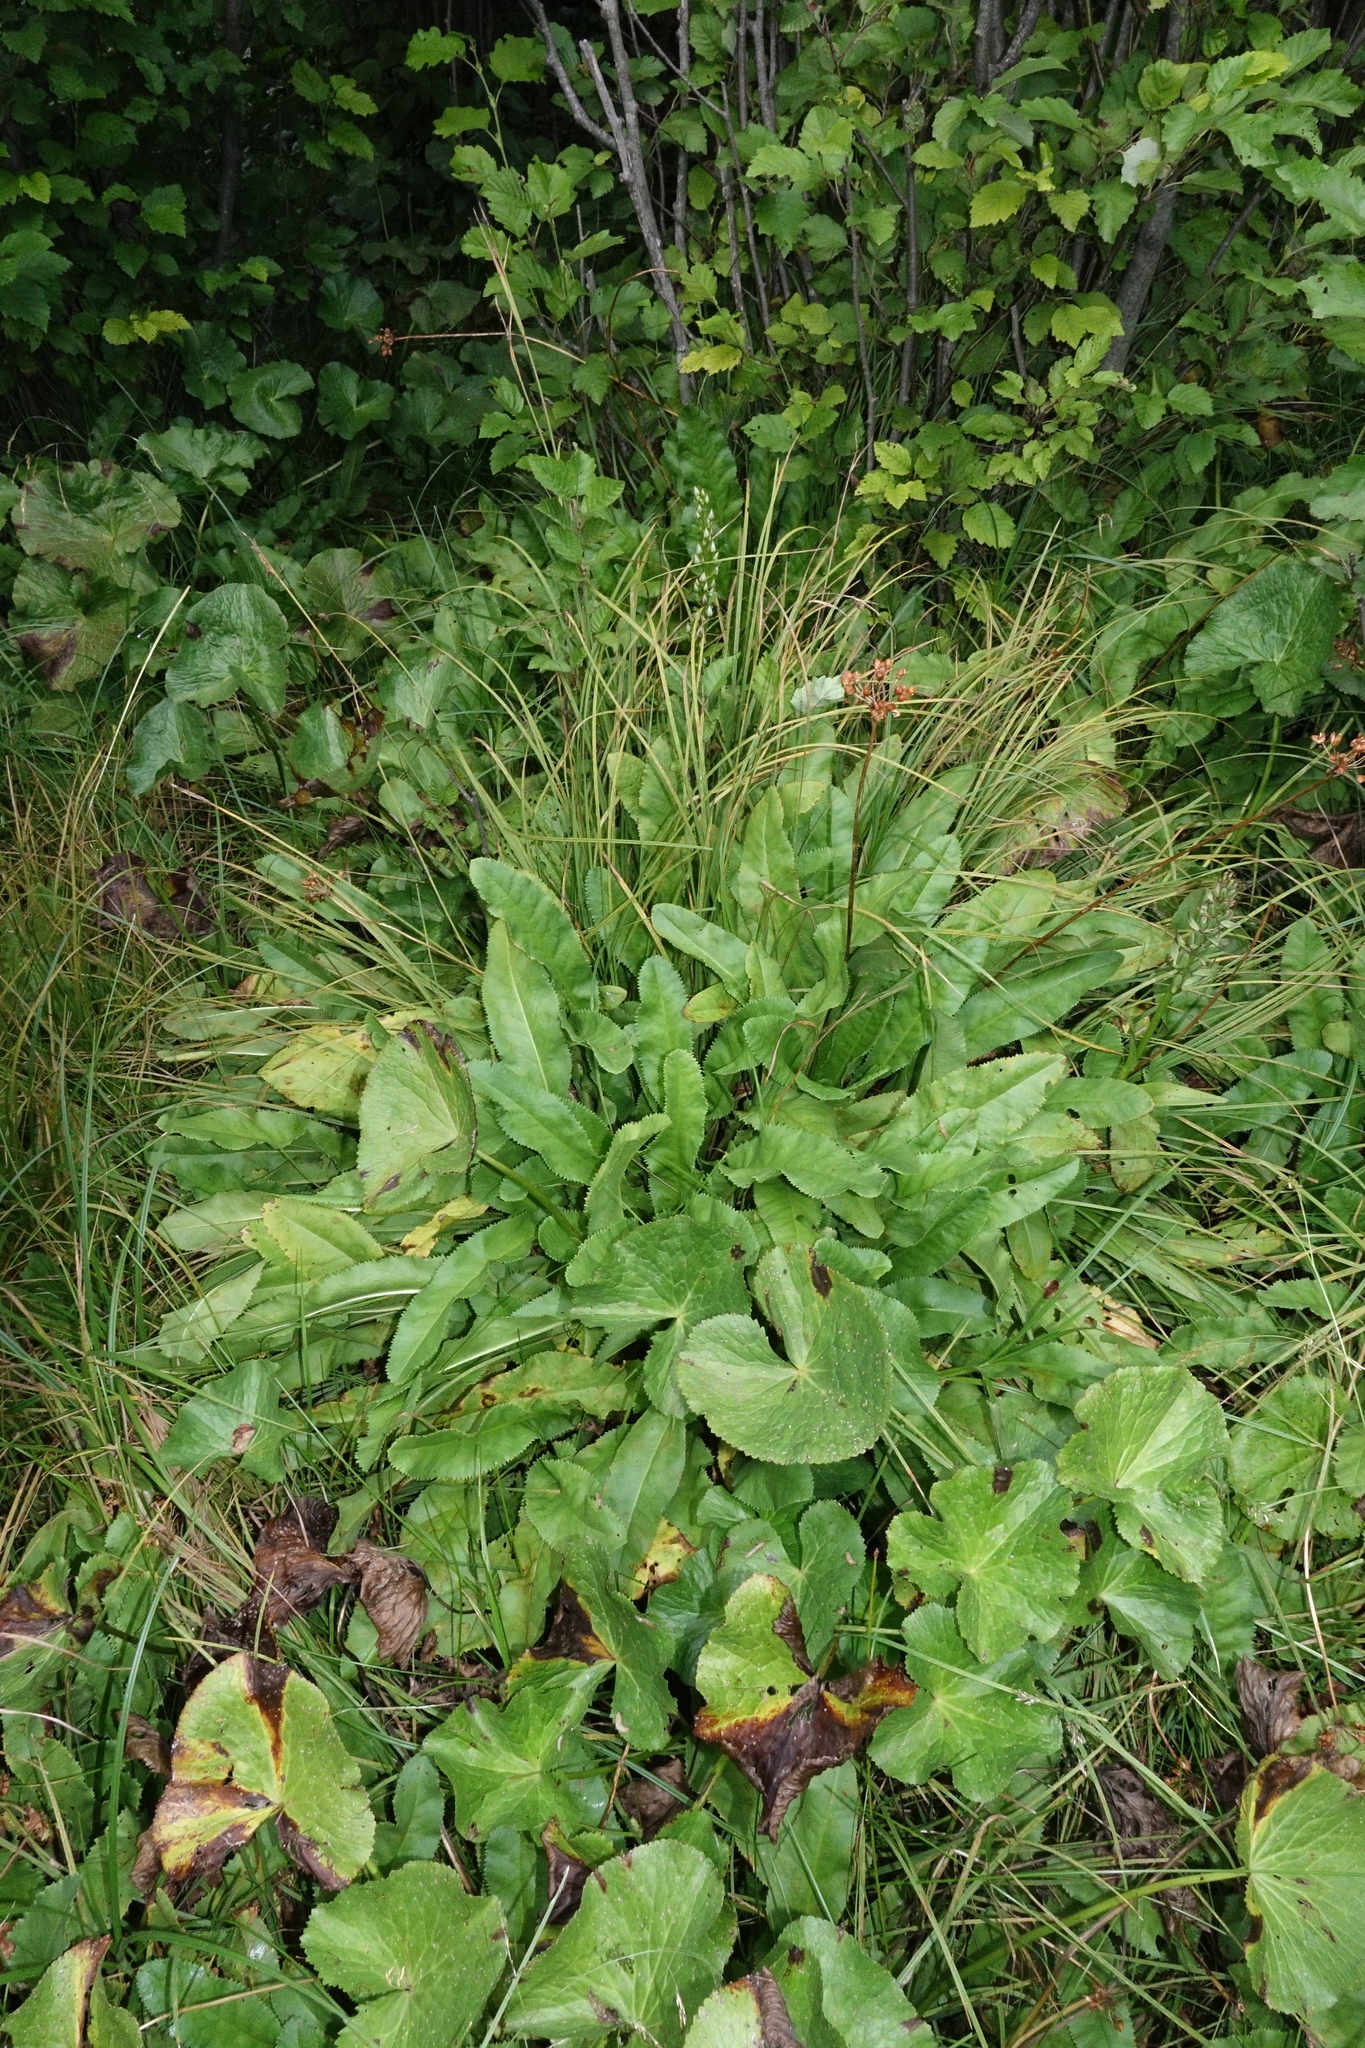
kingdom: Plantae
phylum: Tracheophyta
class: Magnoliopsida
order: Ericales
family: Primulaceae
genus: Primula
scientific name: Primula luteola
